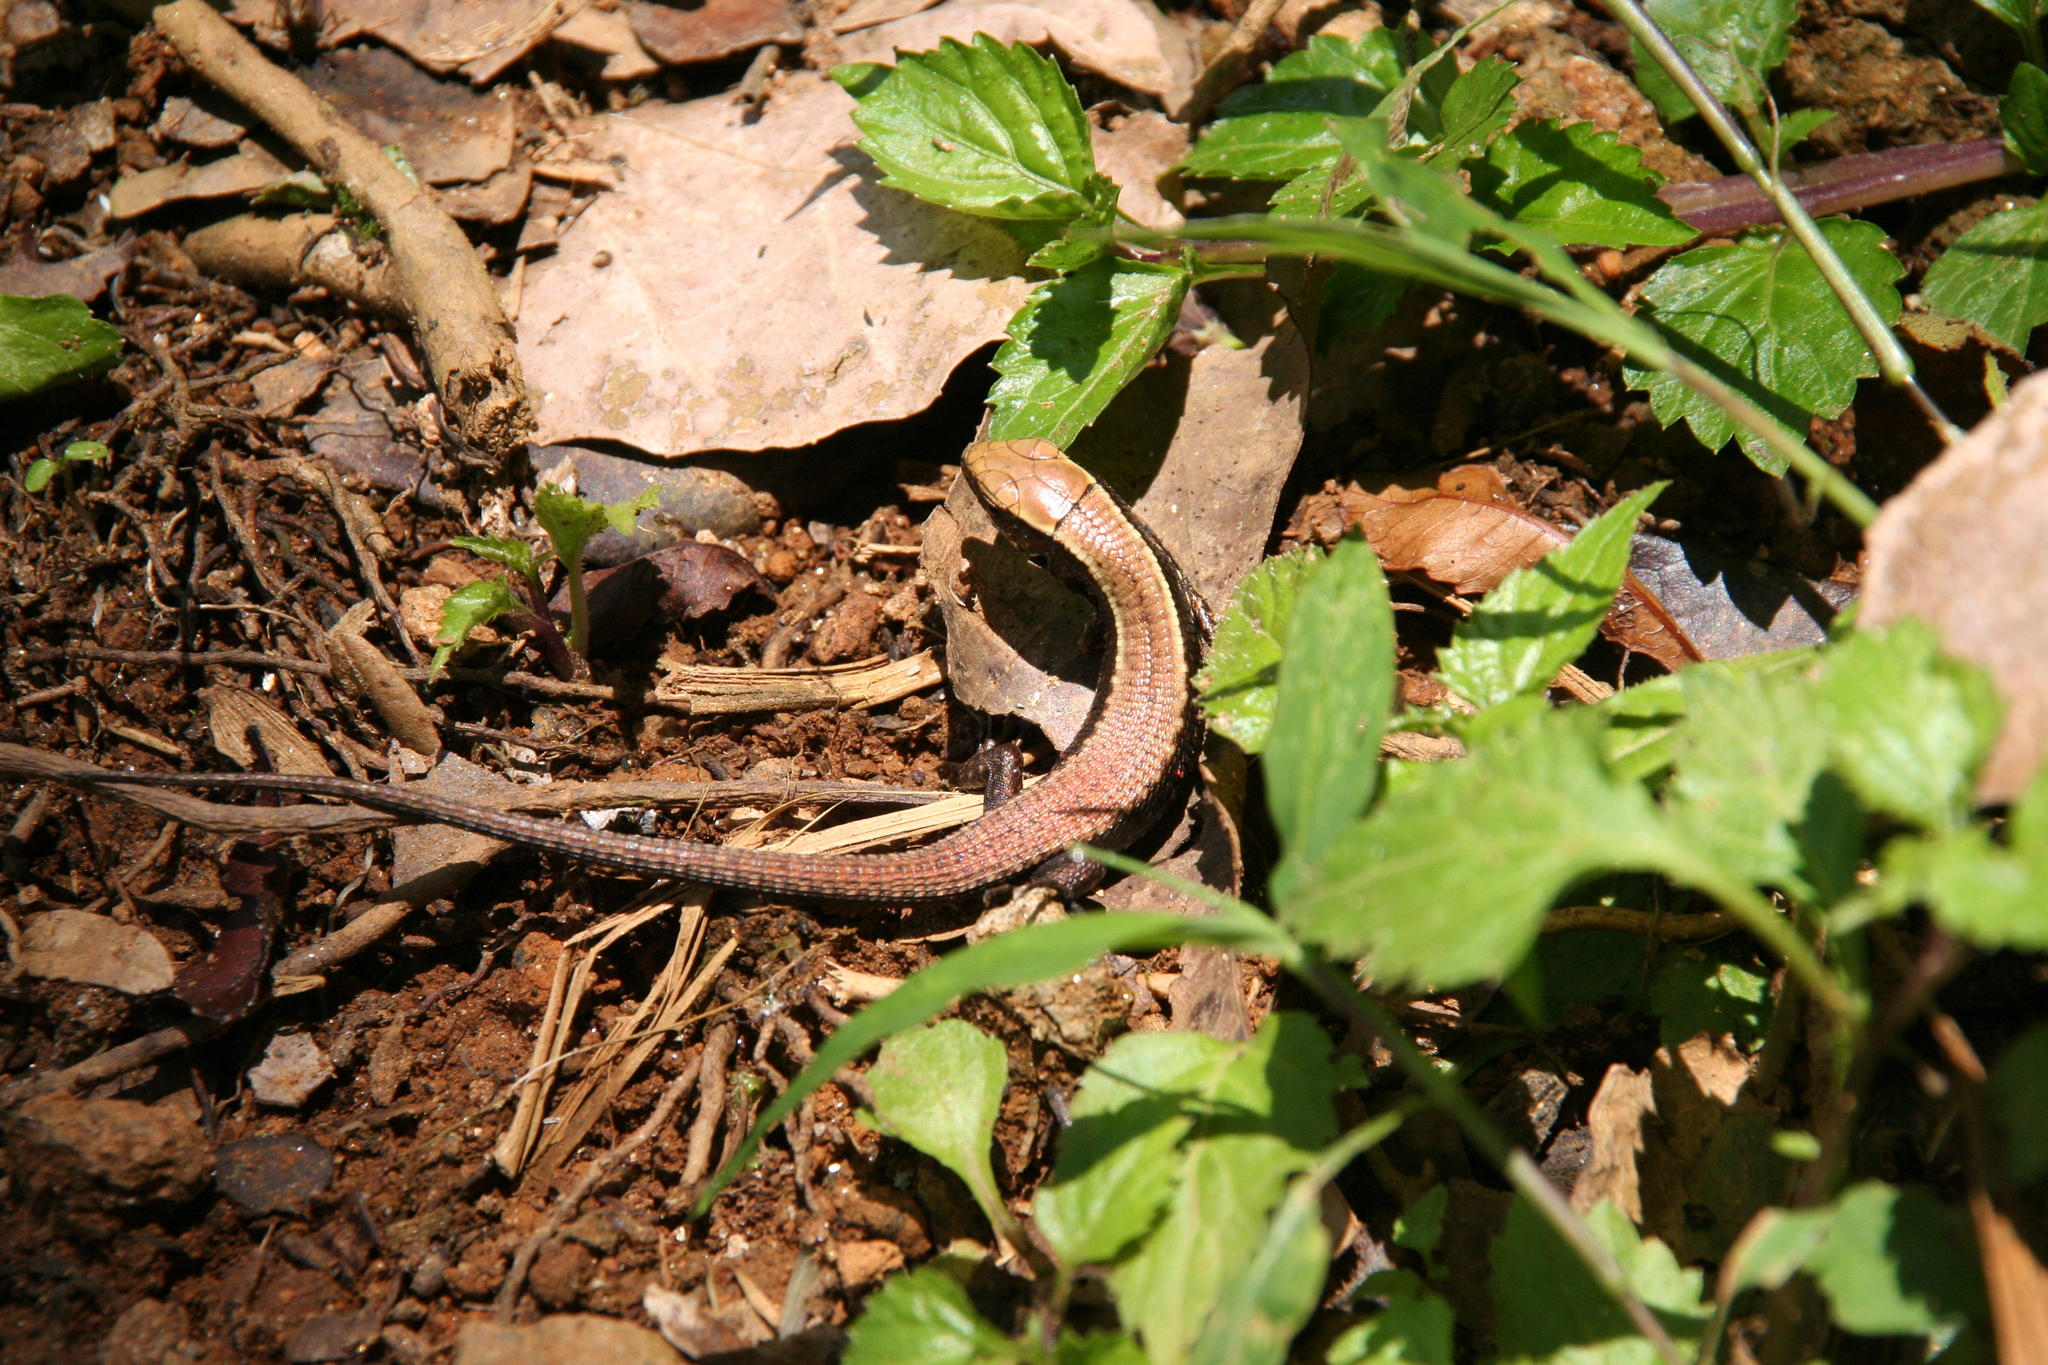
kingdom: Animalia
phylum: Chordata
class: Squamata
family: Gerrhosauridae
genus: Zonosaurus
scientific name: Zonosaurus aeneus
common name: Bronze girdled lizard
